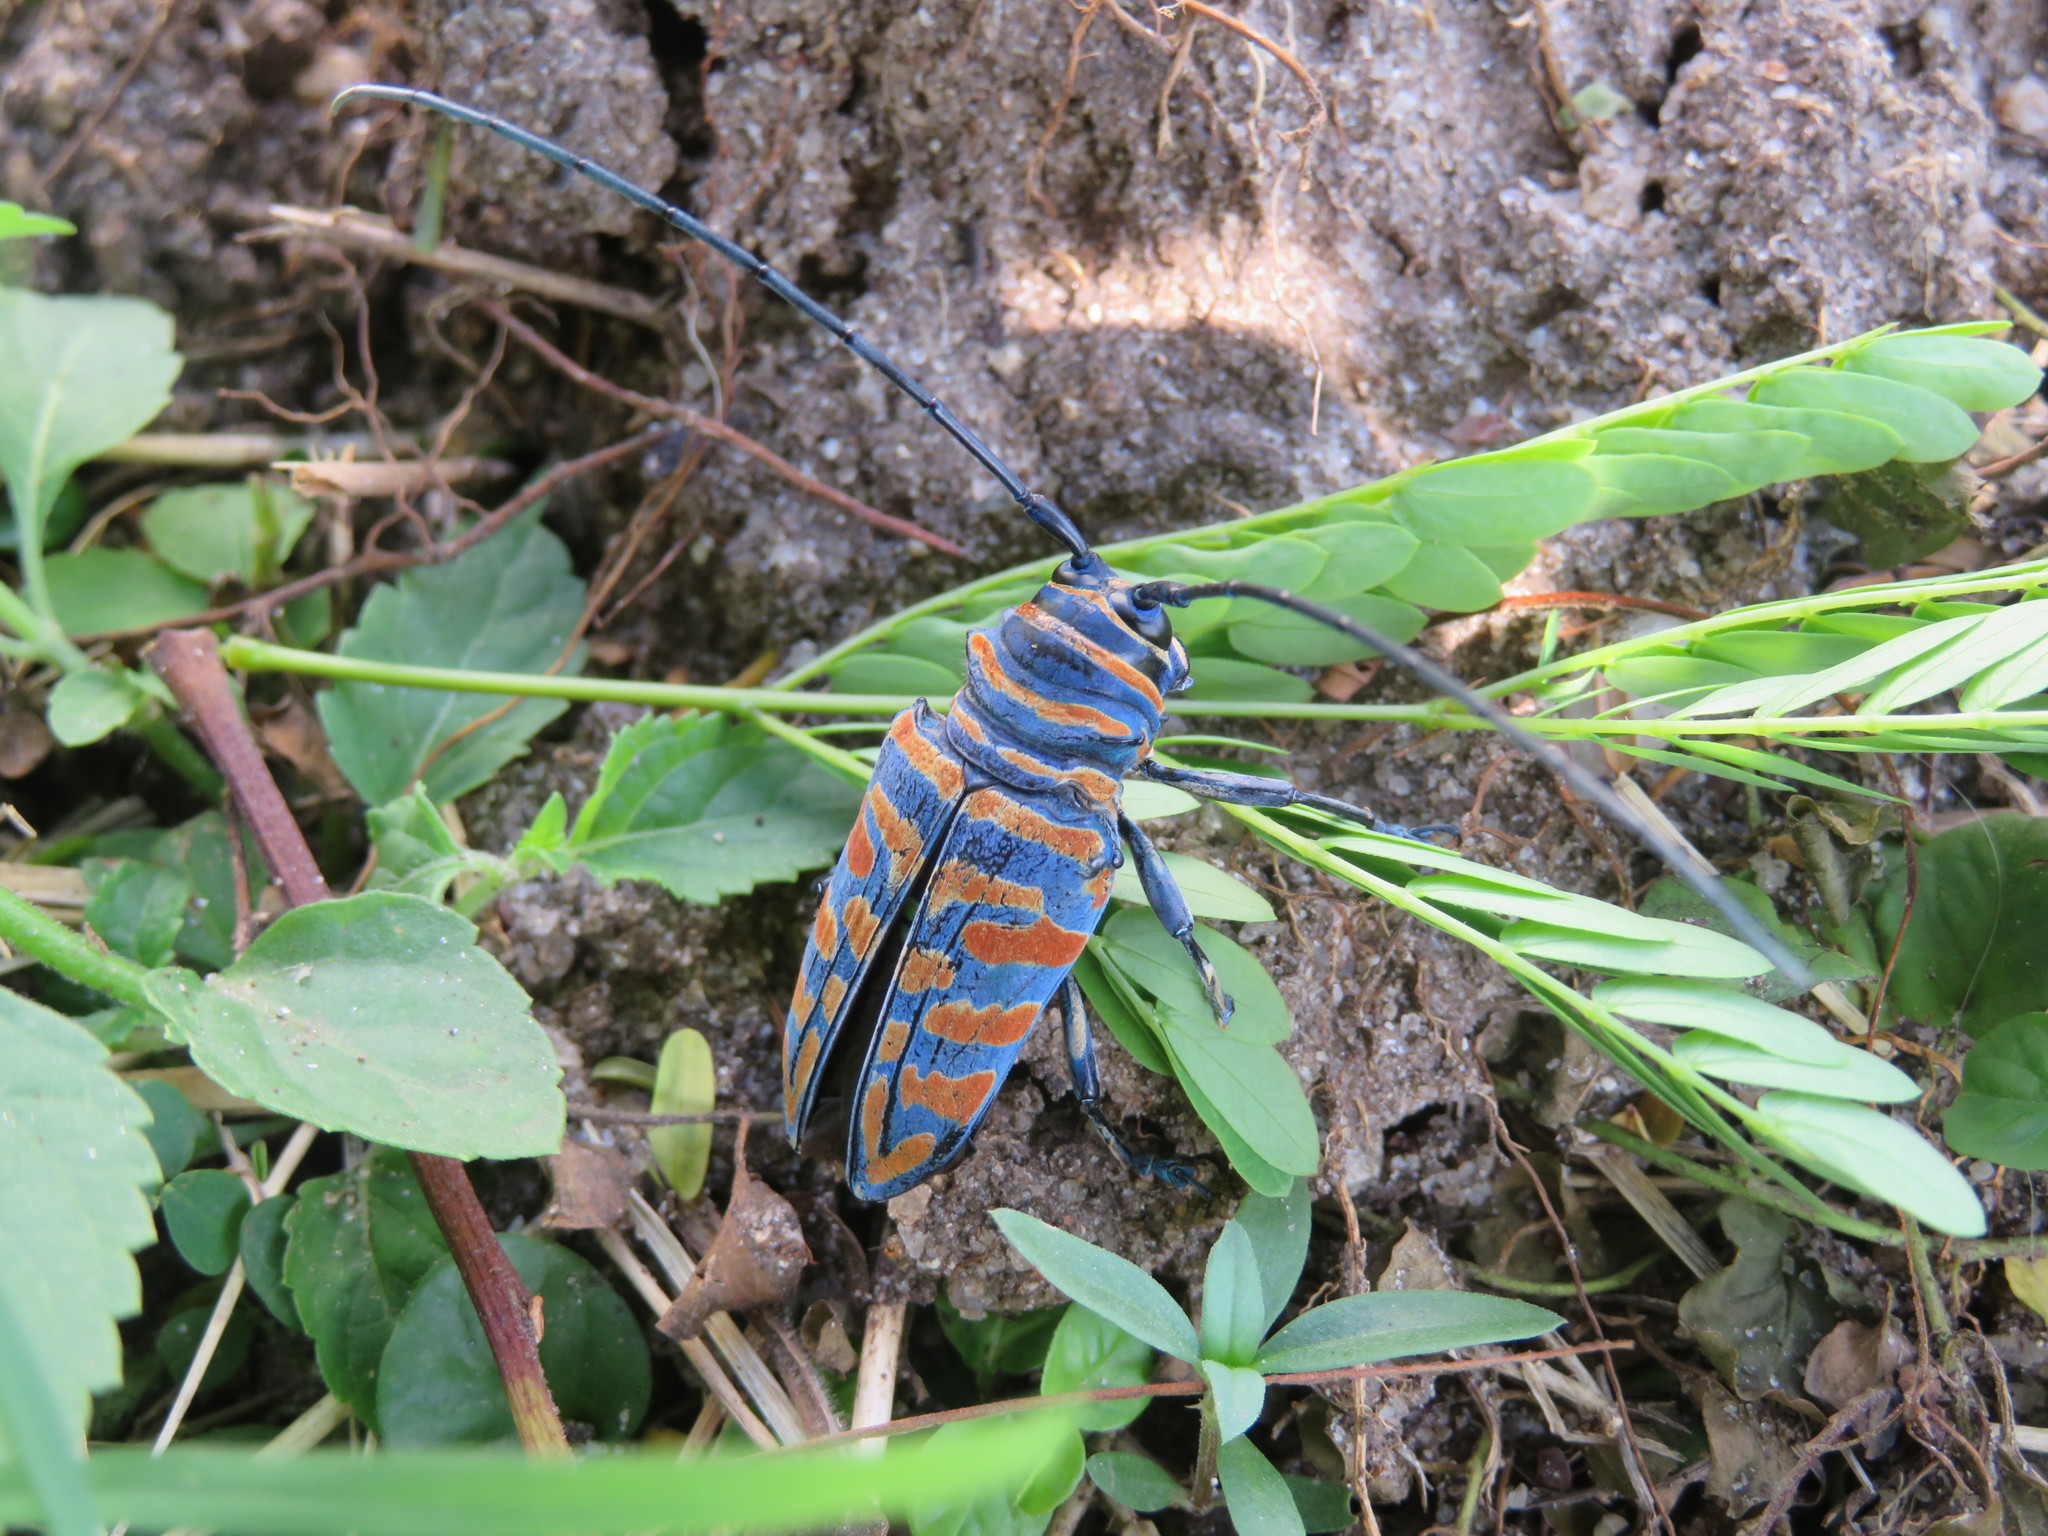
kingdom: Animalia
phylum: Arthropoda
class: Insecta
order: Coleoptera
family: Cerambycidae
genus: Sternotomis
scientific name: Sternotomis bohemani
